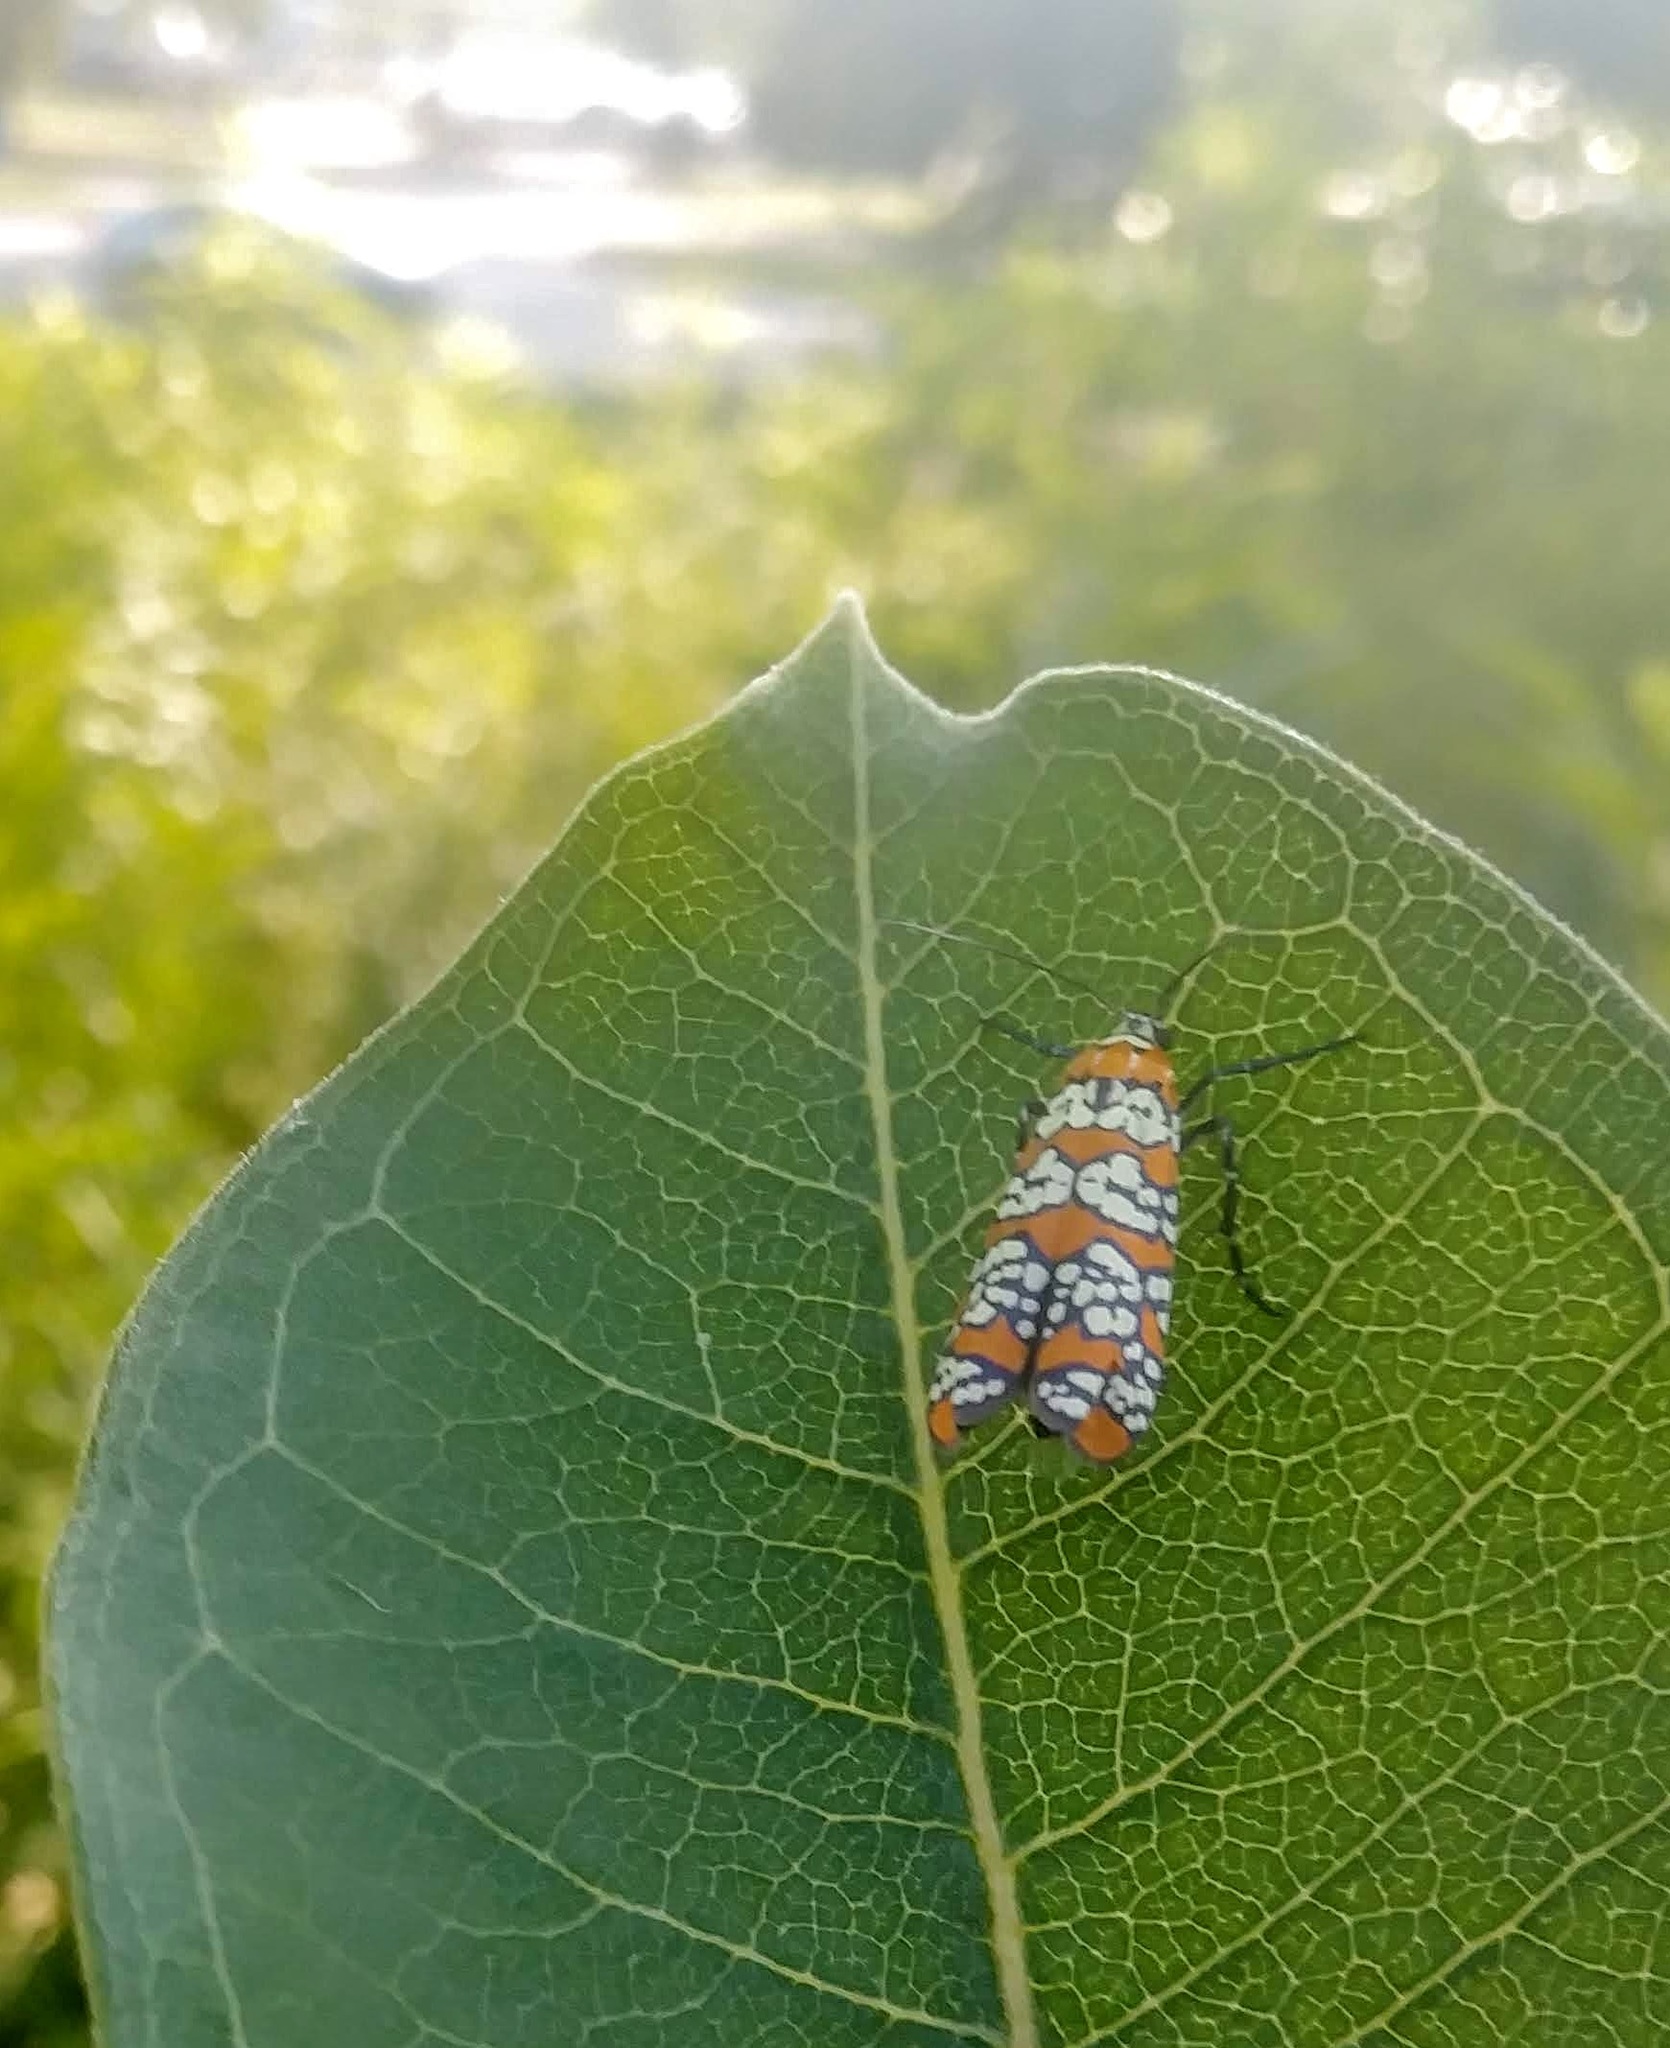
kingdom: Animalia
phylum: Arthropoda
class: Insecta
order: Lepidoptera
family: Attevidae
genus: Atteva
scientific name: Atteva punctella
